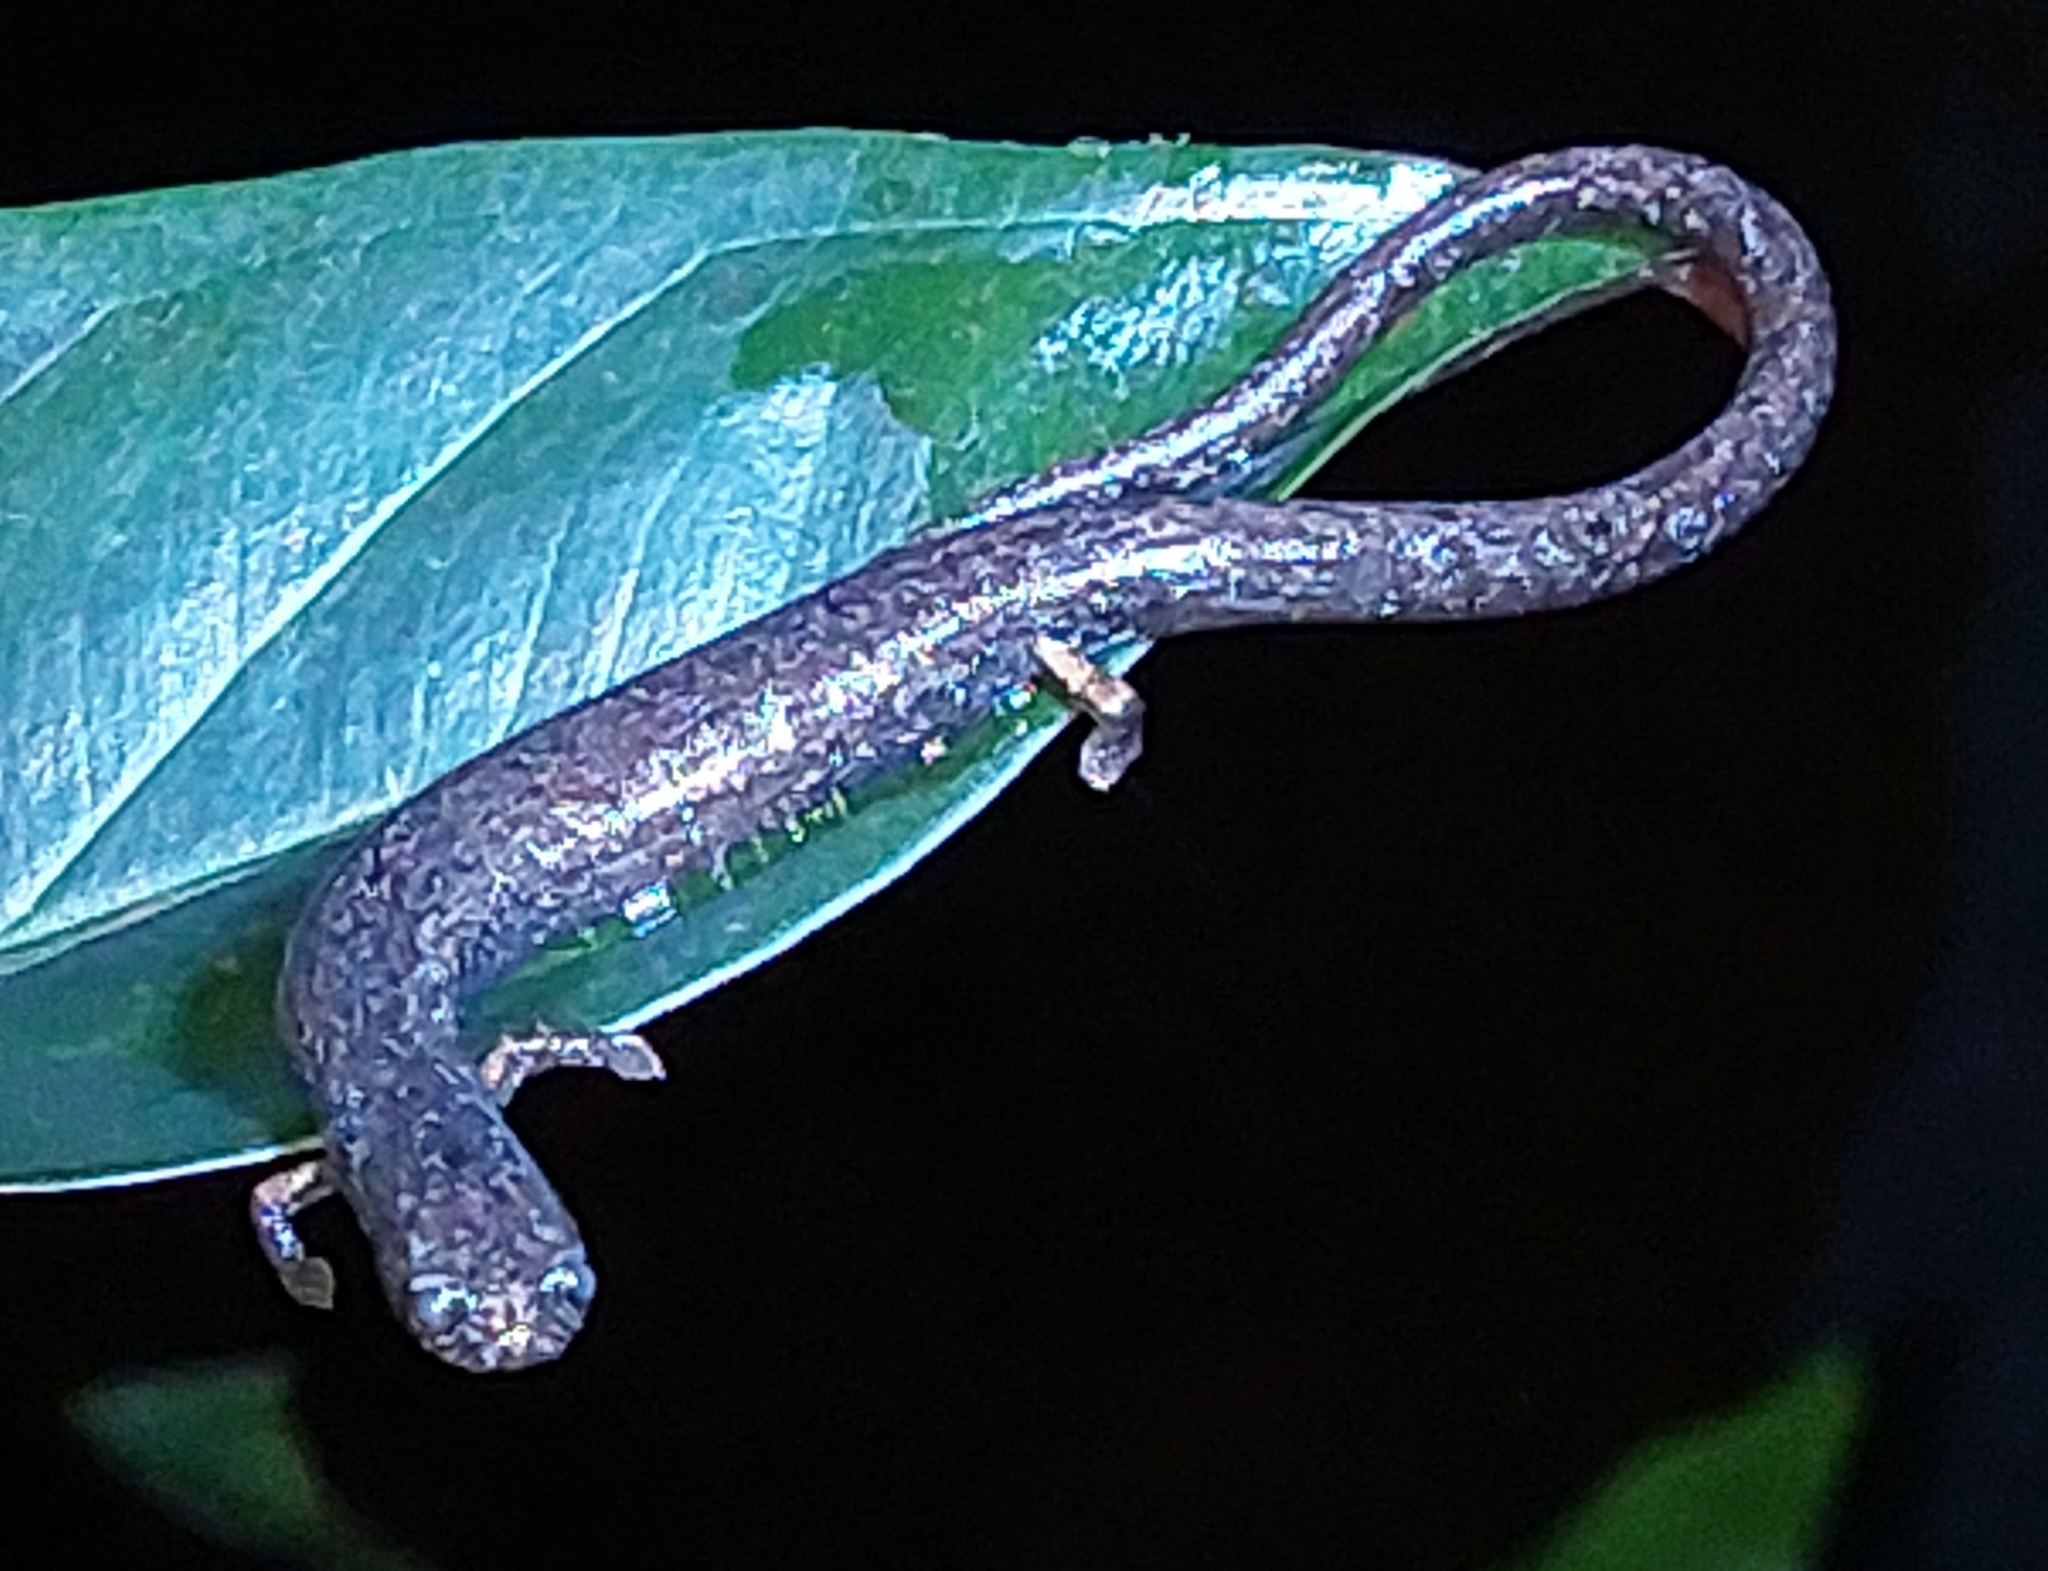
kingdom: Animalia
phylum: Chordata
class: Amphibia
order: Caudata
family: Plethodontidae
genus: Oedipina
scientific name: Oedipina
